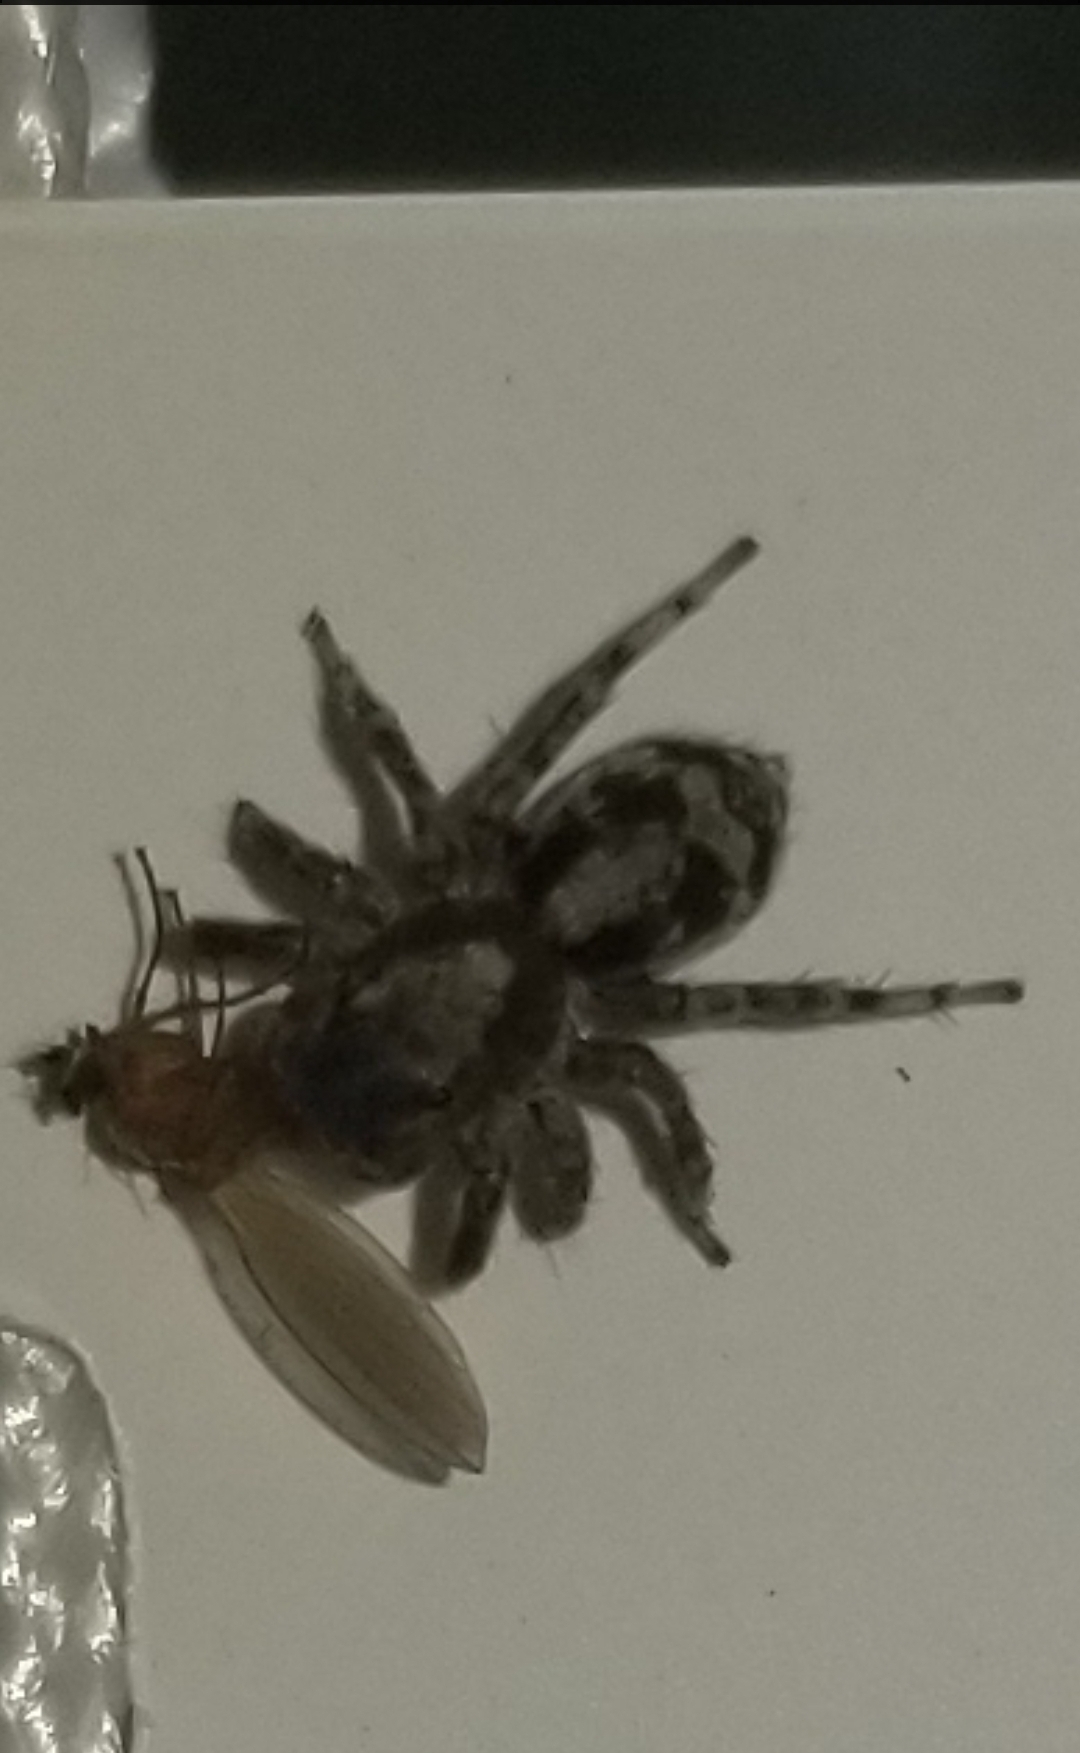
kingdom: Animalia
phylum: Arthropoda
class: Arachnida
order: Araneae
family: Salticidae
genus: Naphrys
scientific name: Naphrys pulex
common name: Flea jumping spider
